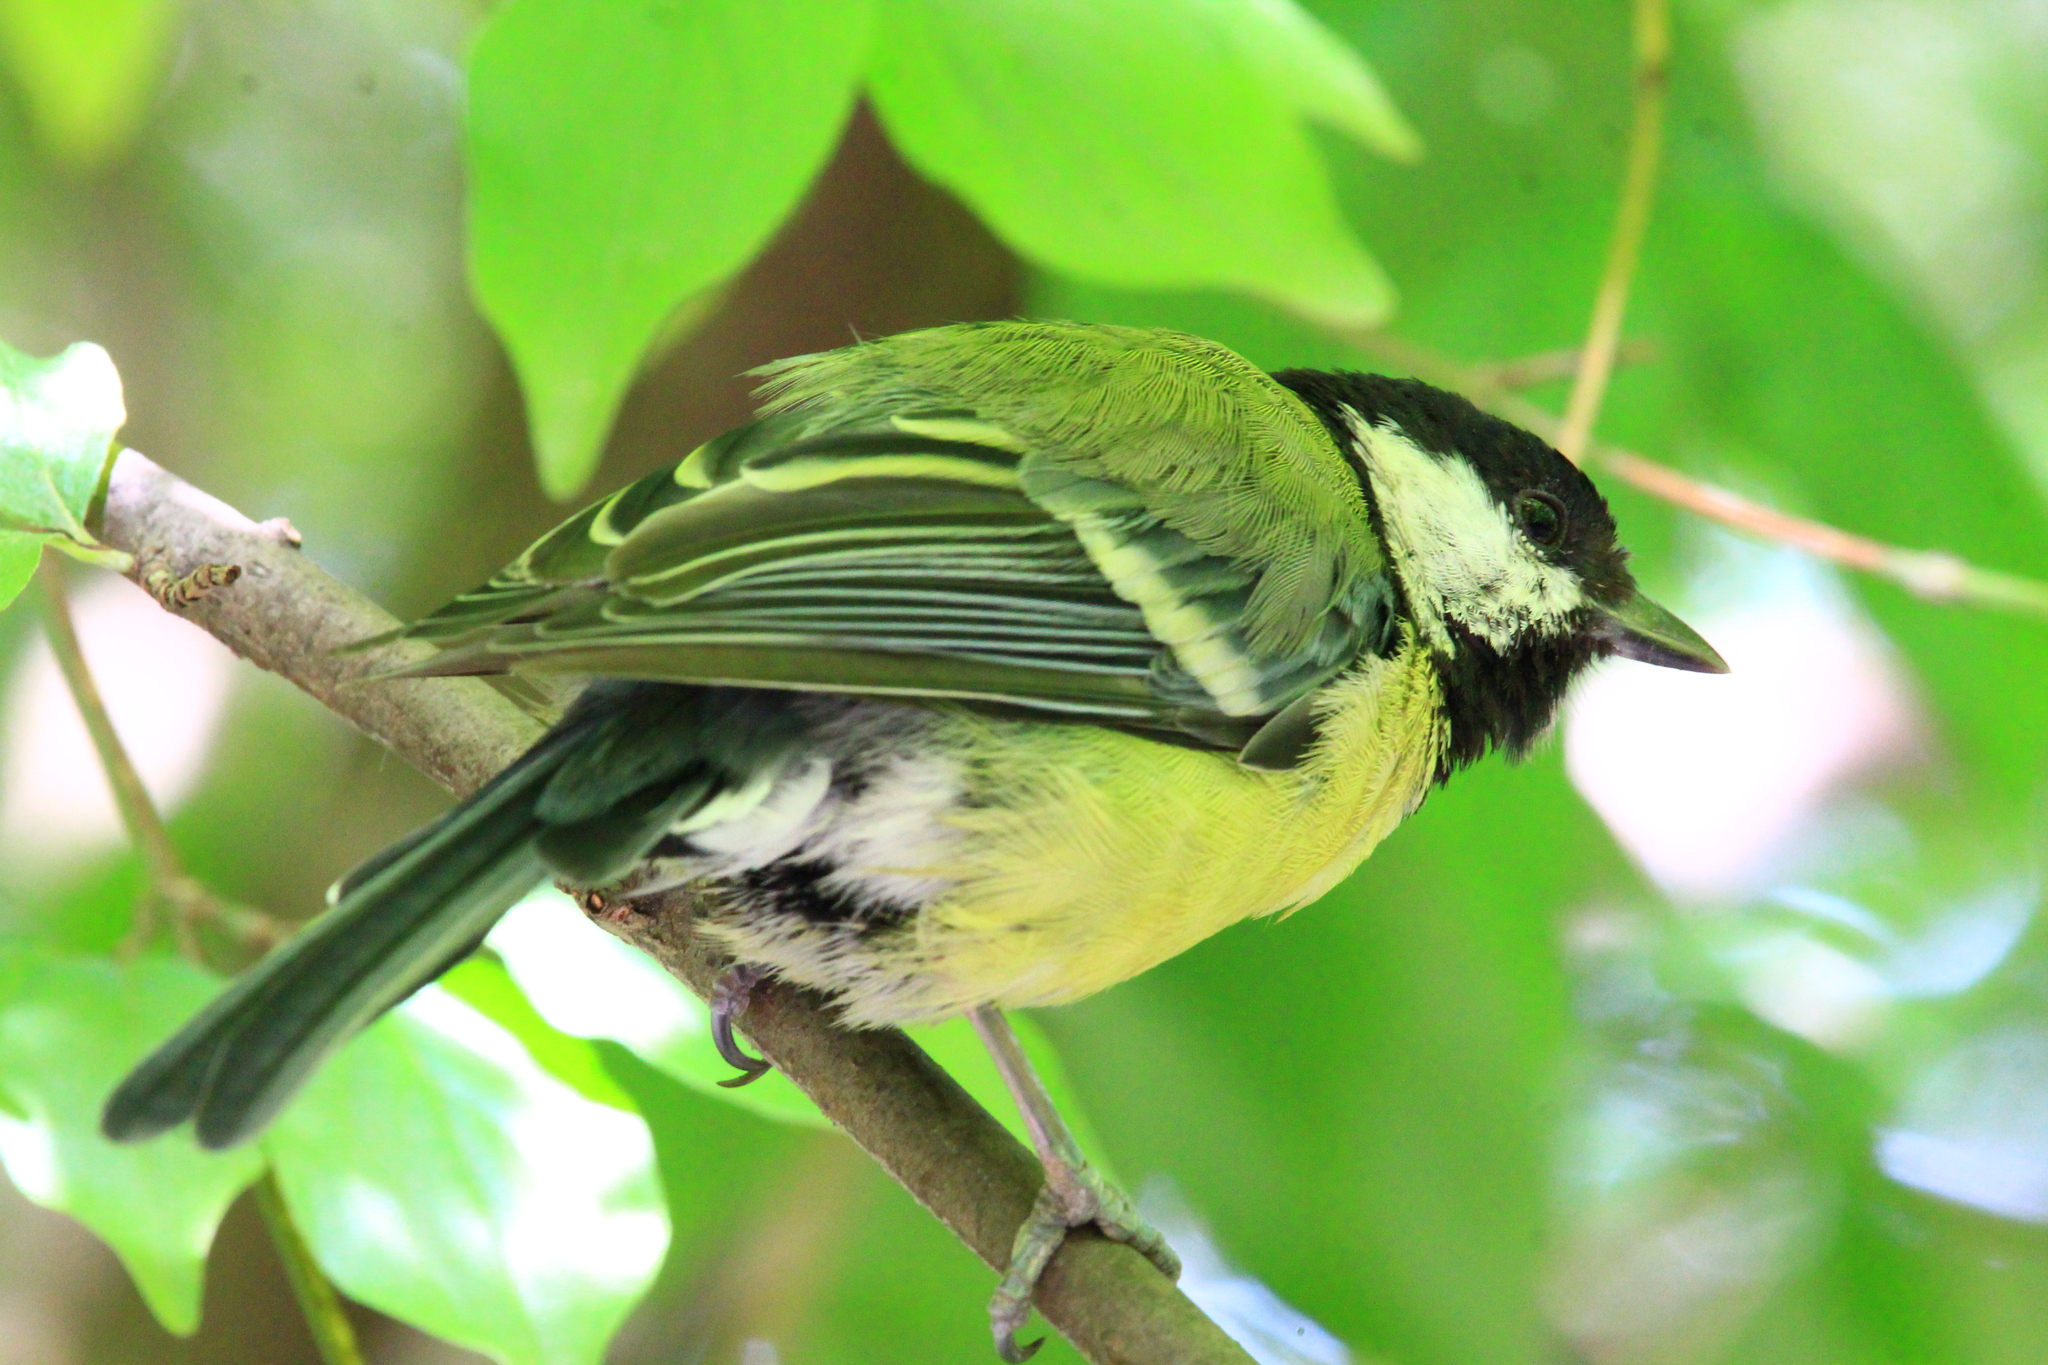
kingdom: Animalia
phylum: Chordata
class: Aves
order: Passeriformes
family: Paridae
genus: Parus
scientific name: Parus major
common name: Great tit
